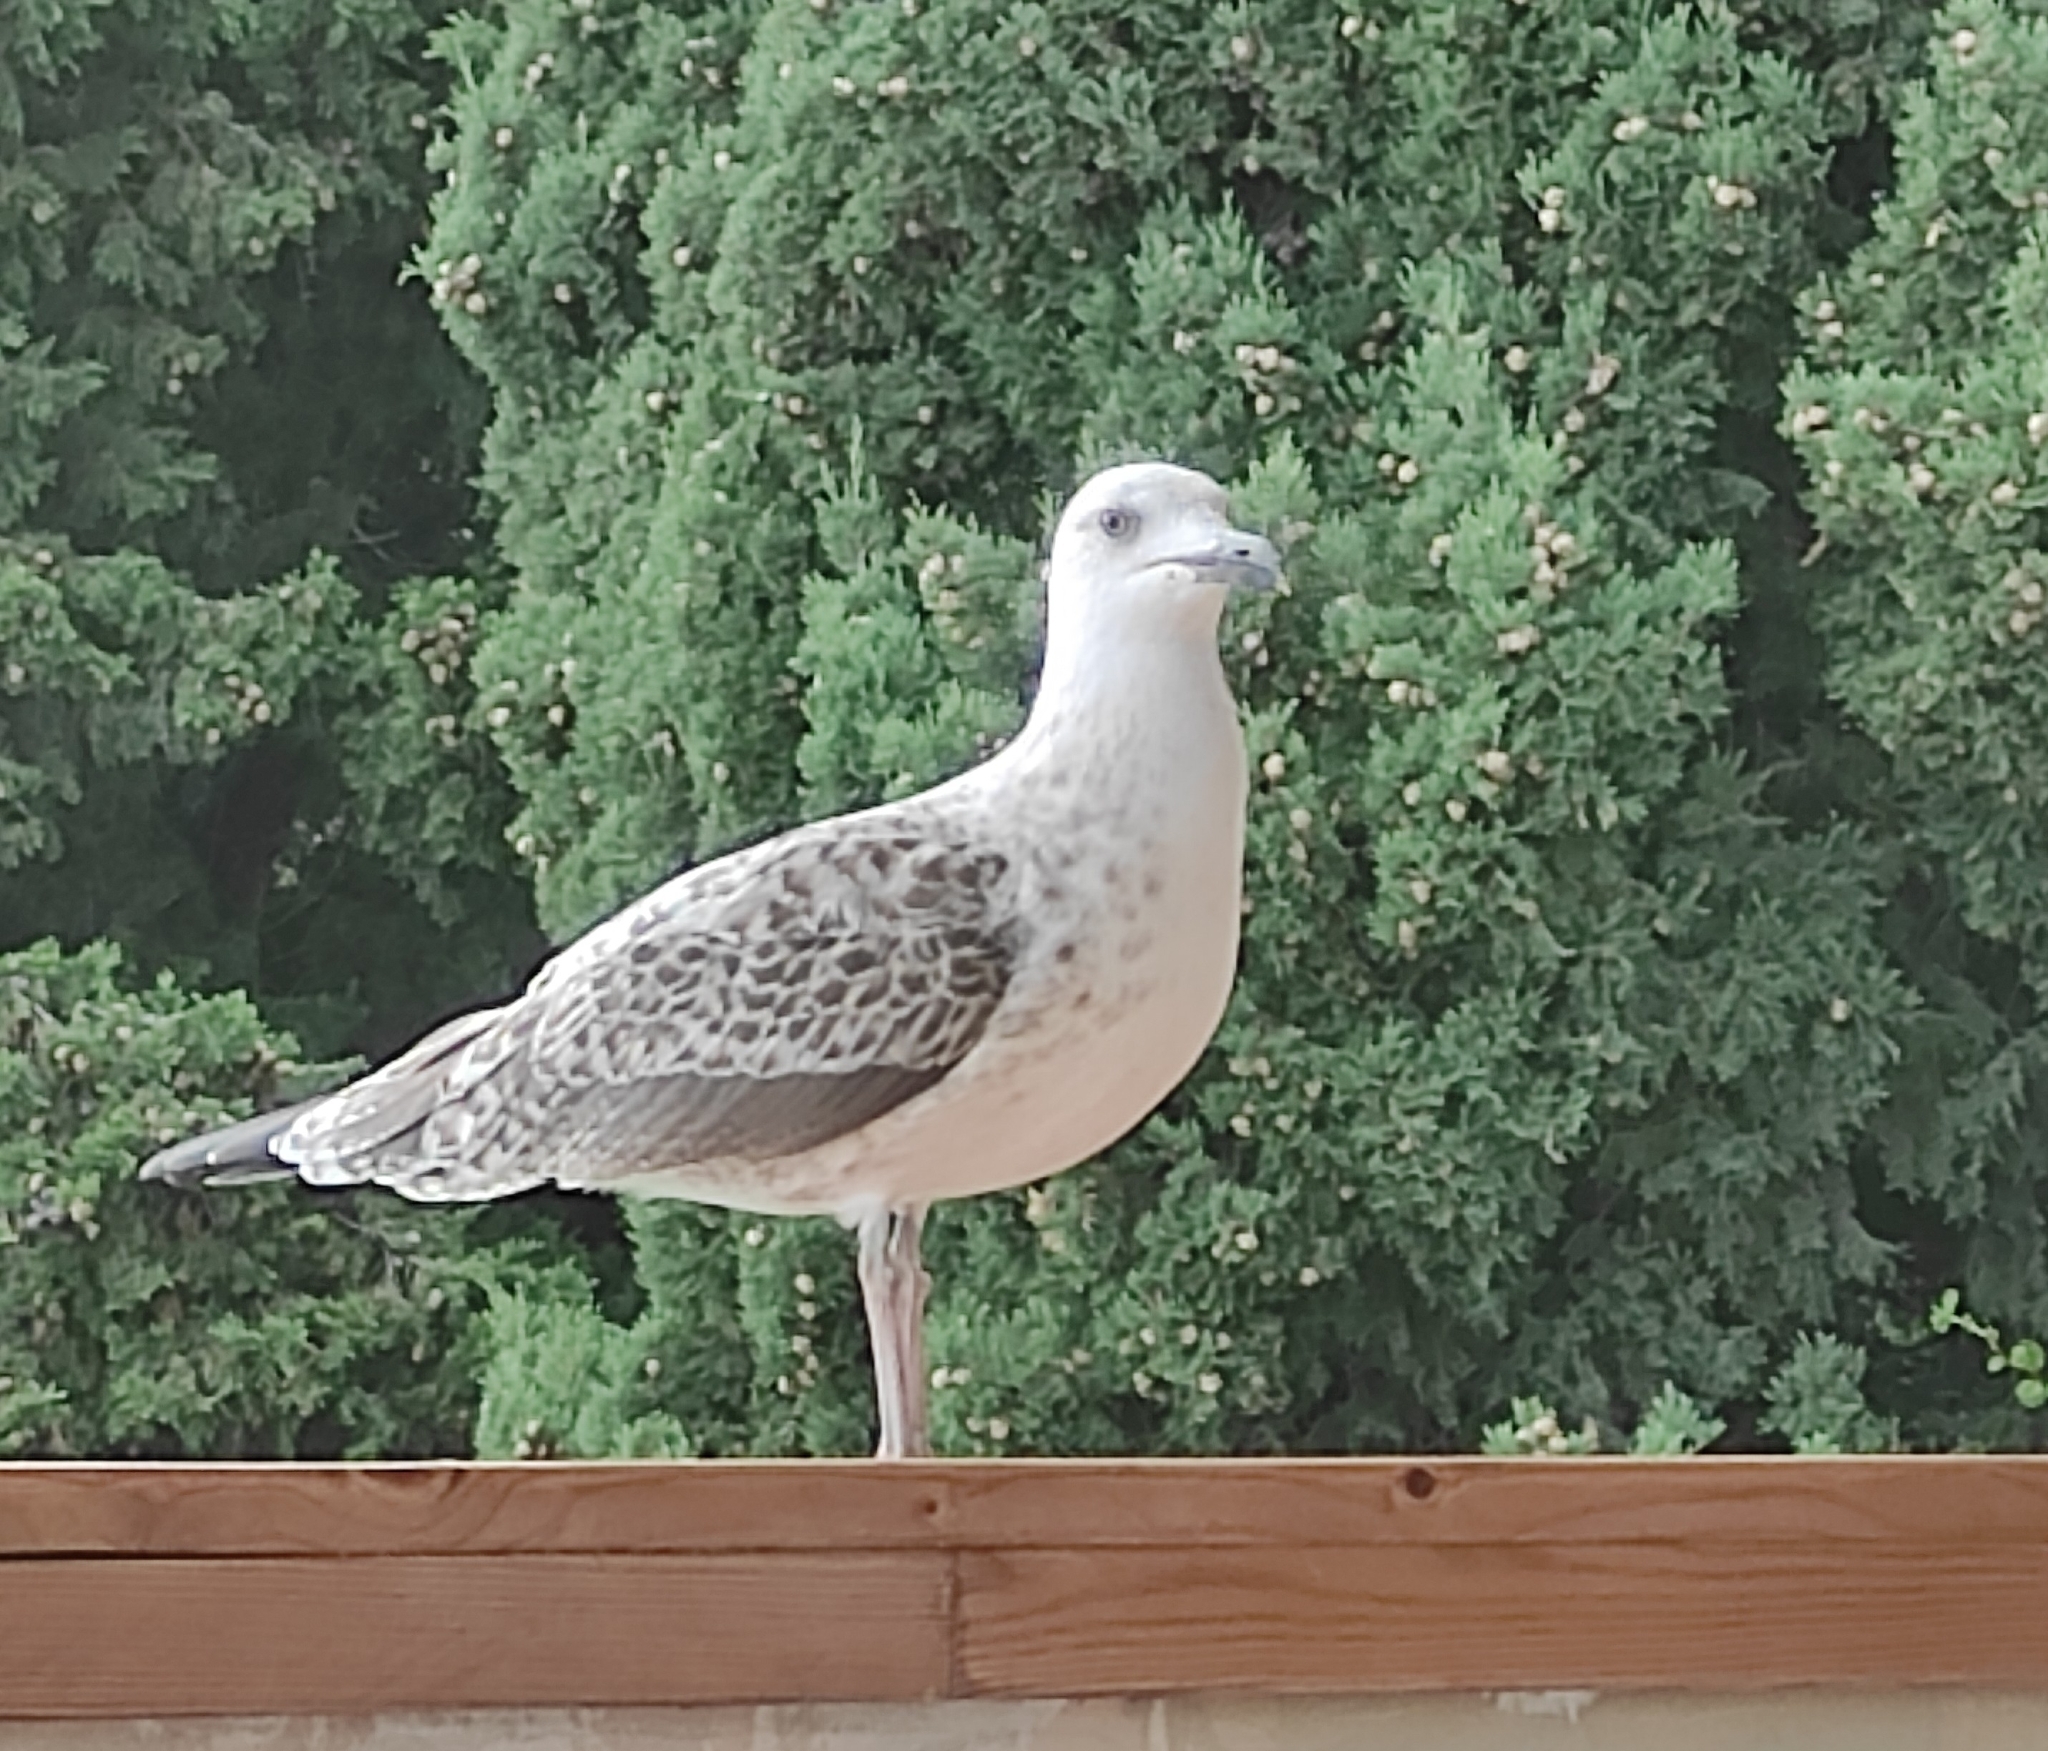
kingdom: Animalia
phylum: Chordata
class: Aves
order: Charadriiformes
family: Laridae
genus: Larus
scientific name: Larus michahellis
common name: Yellow-legged gull
